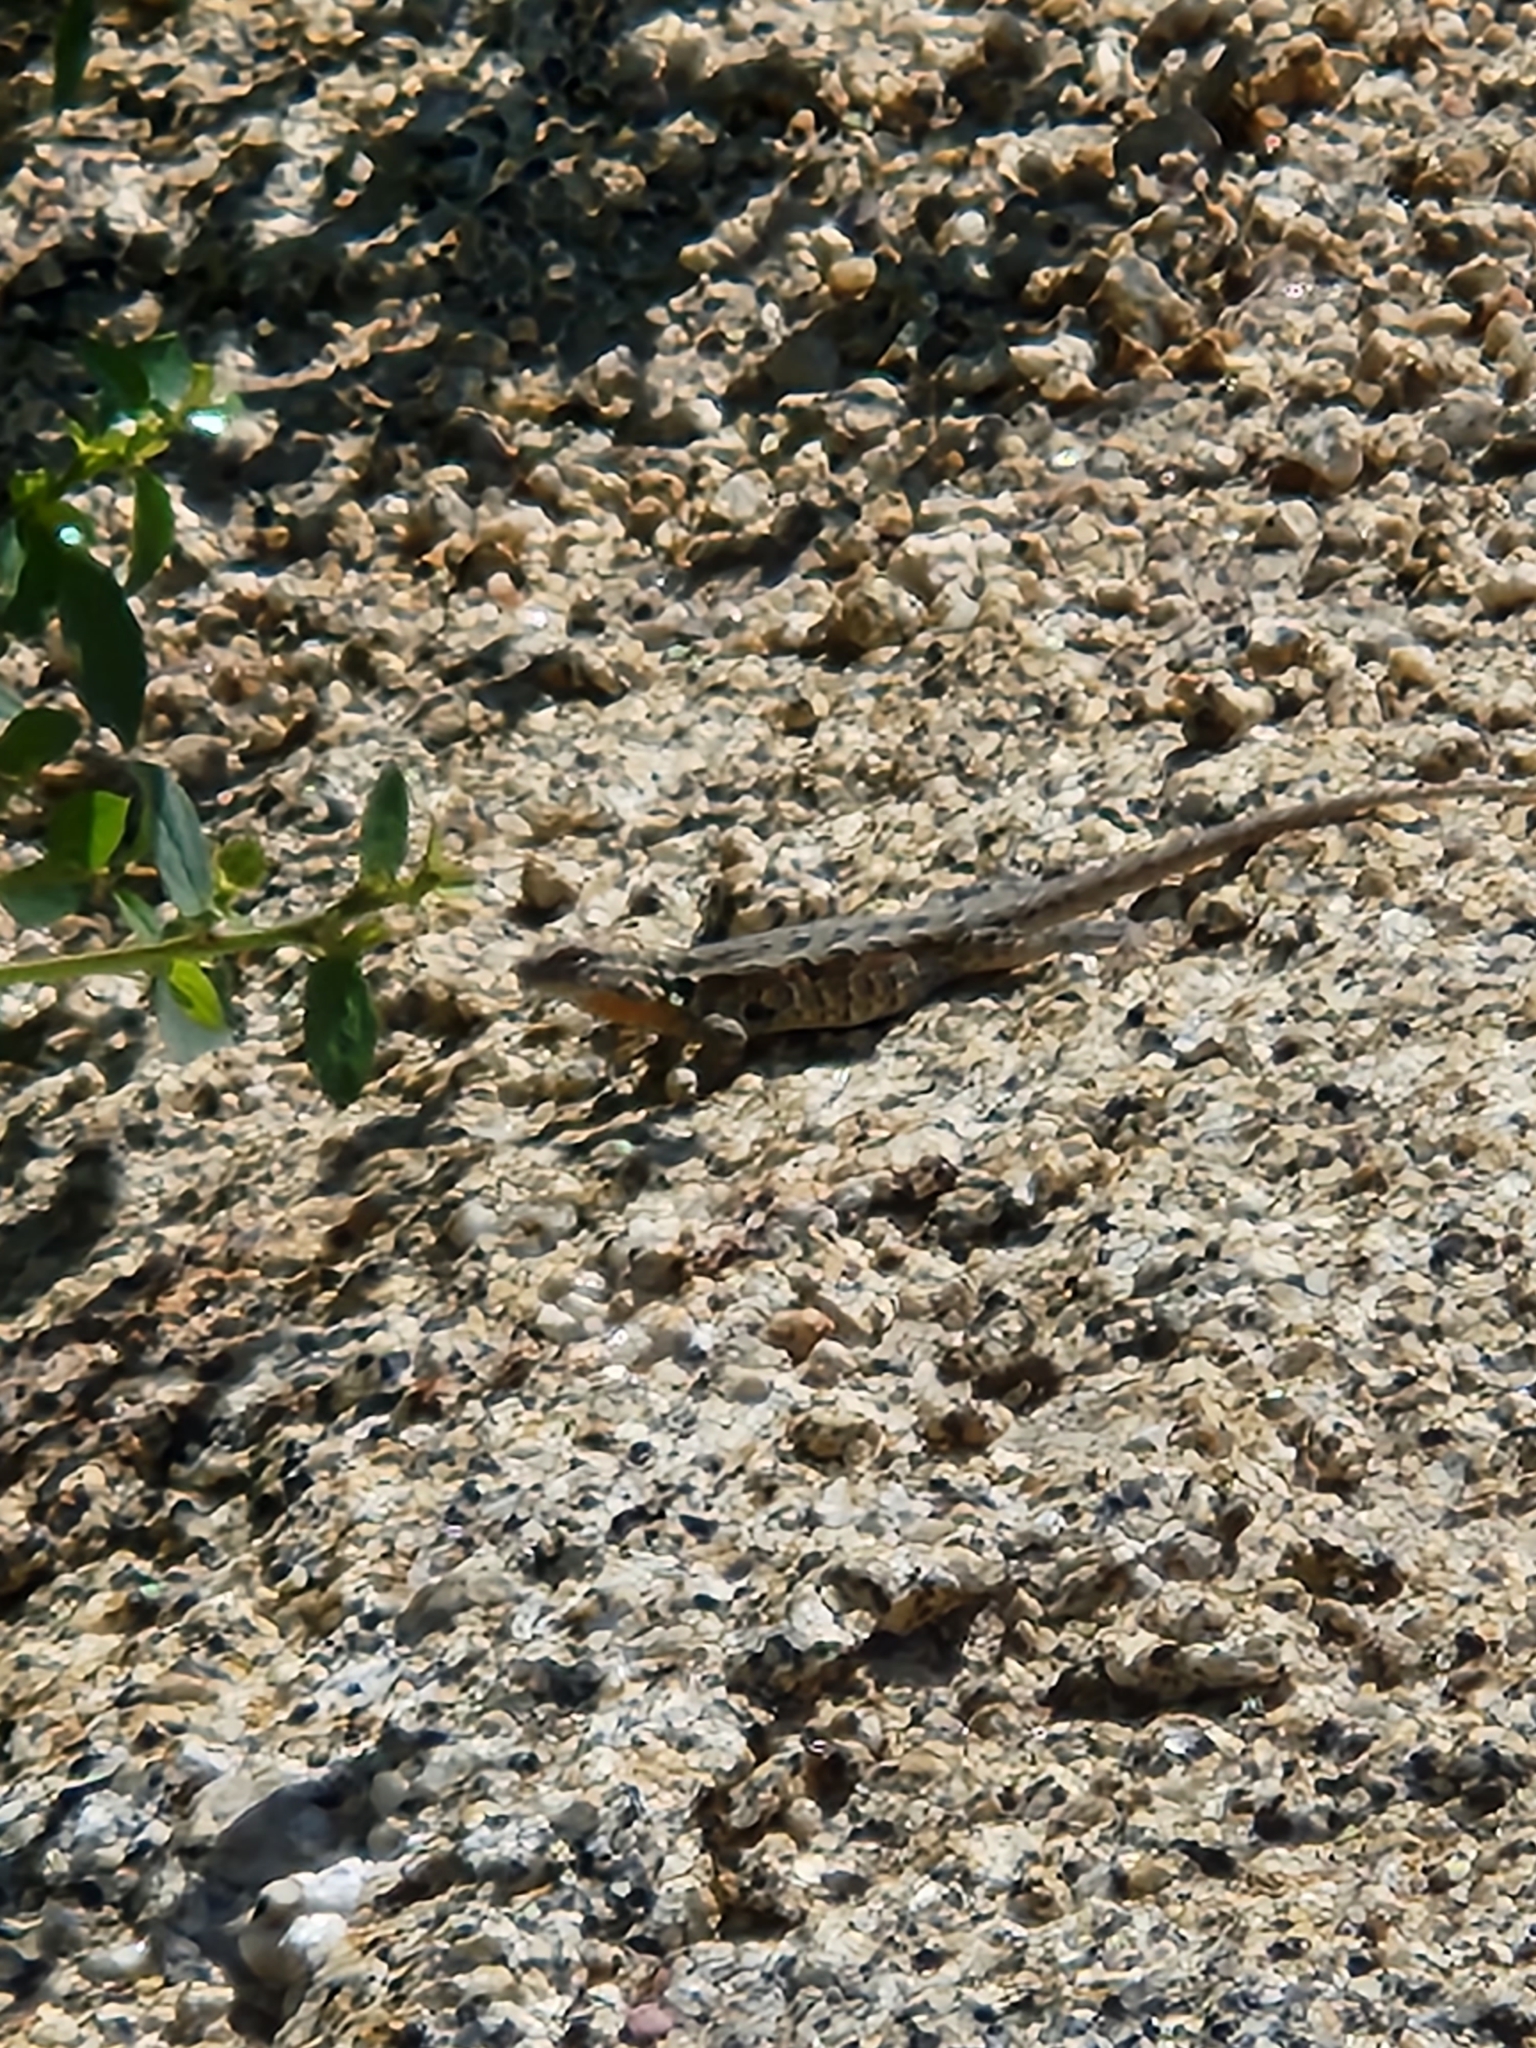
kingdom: Animalia
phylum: Chordata
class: Squamata
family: Phrynosomatidae
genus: Uta
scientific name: Uta stansburiana
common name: Side-blotched lizard
